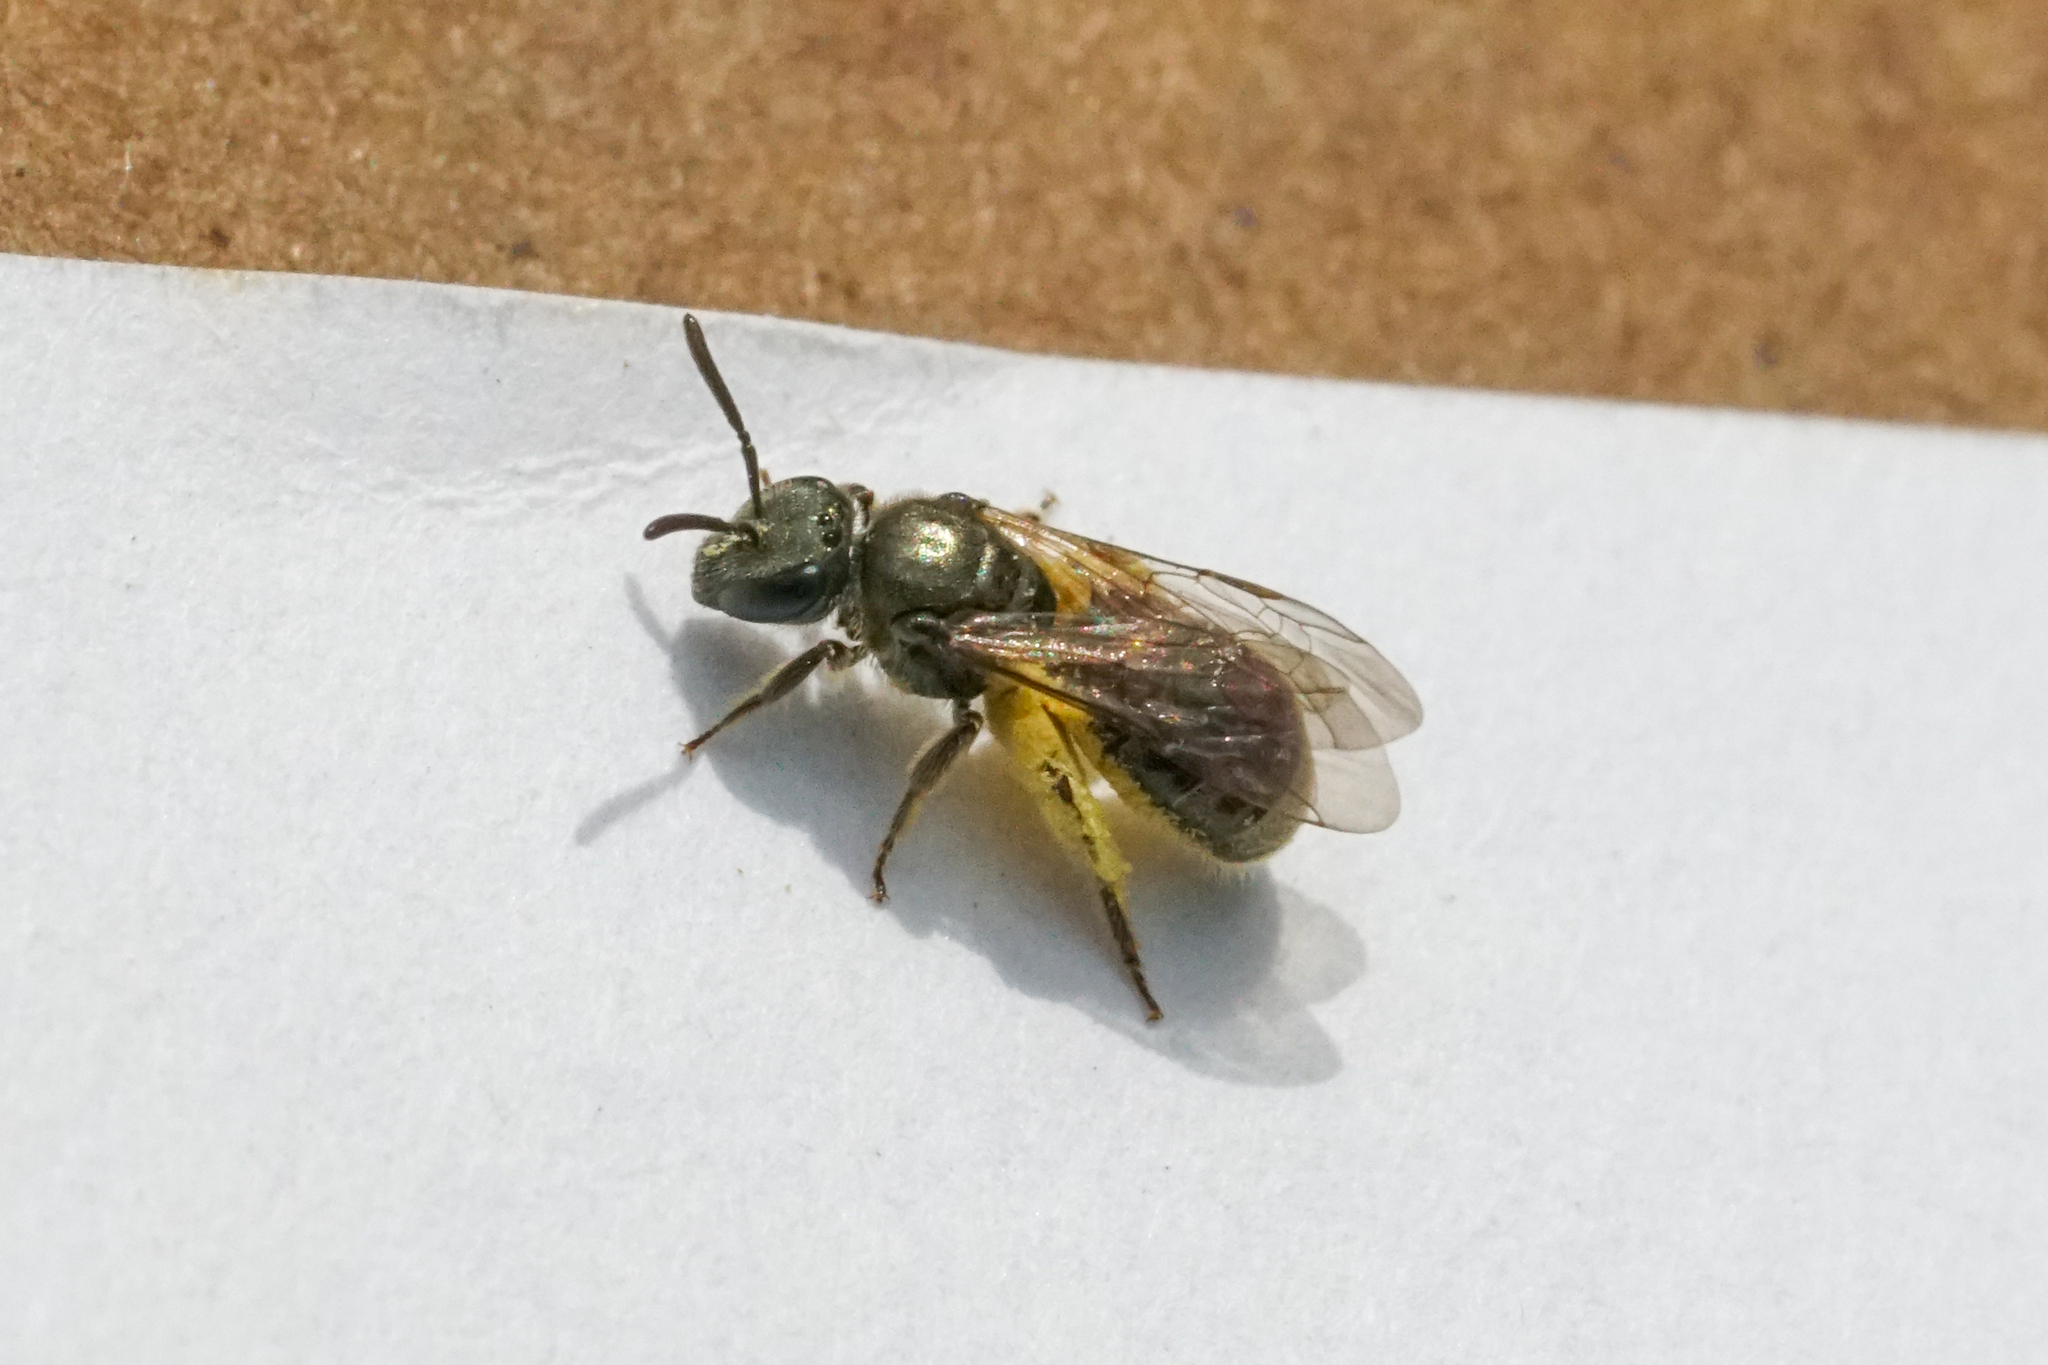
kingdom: Animalia
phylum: Arthropoda
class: Insecta
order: Hymenoptera
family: Halictidae
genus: Dialictus
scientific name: Dialictus
